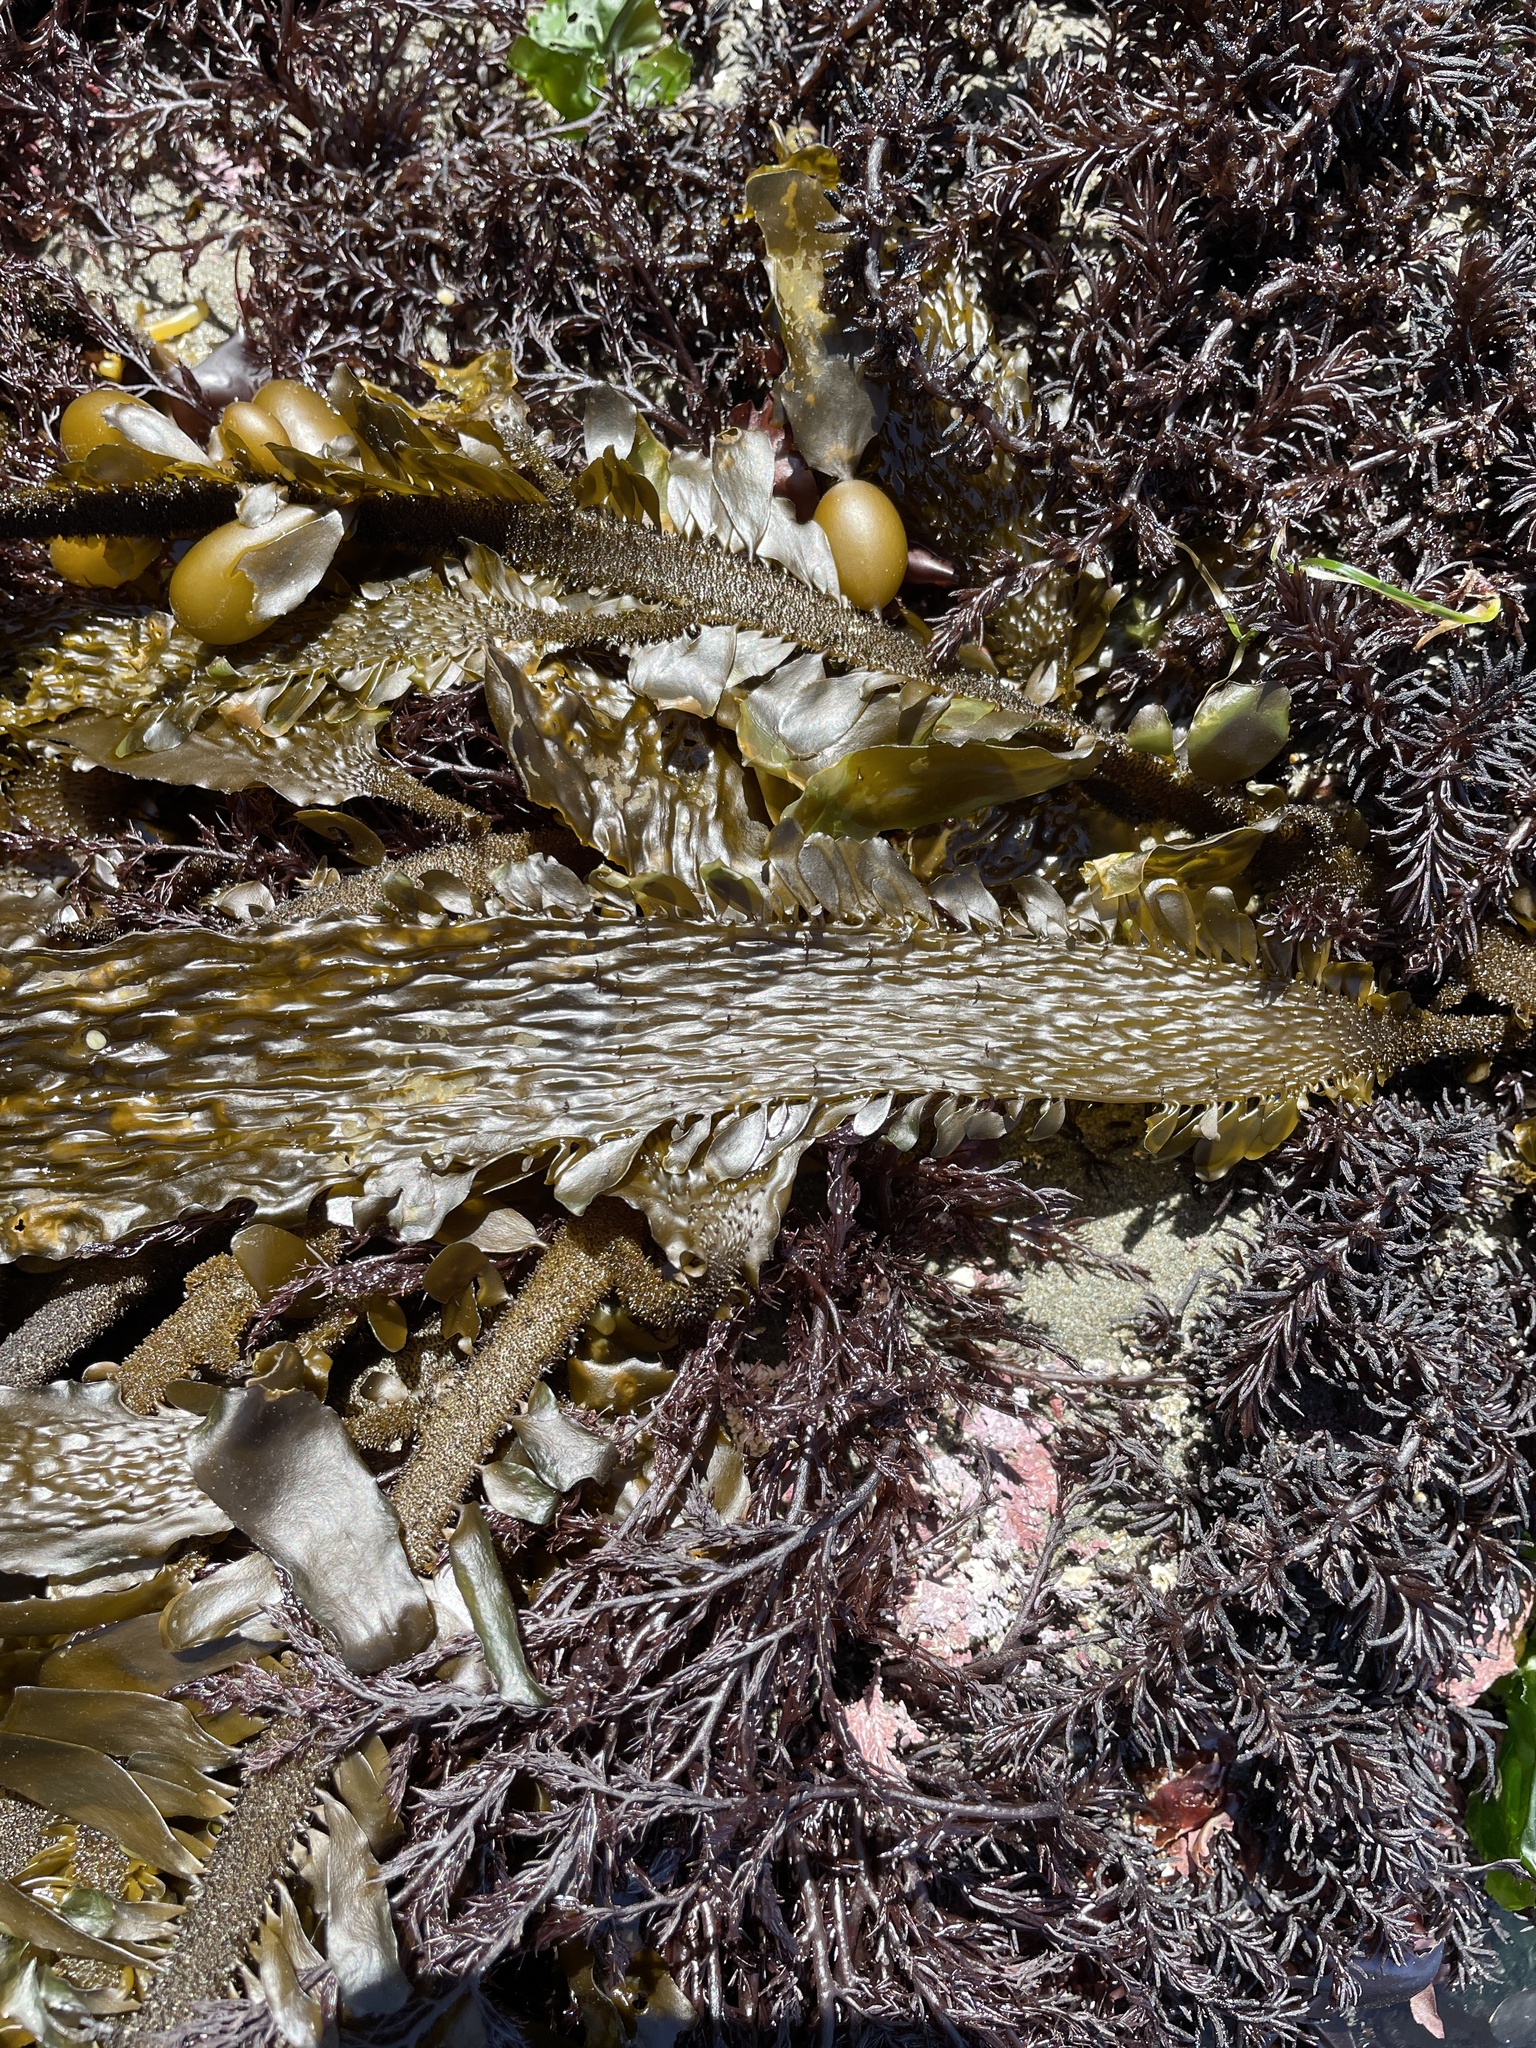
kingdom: Chromista
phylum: Ochrophyta
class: Phaeophyceae
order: Laminariales
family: Lessoniaceae
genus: Egregia
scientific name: Egregia menziesii
